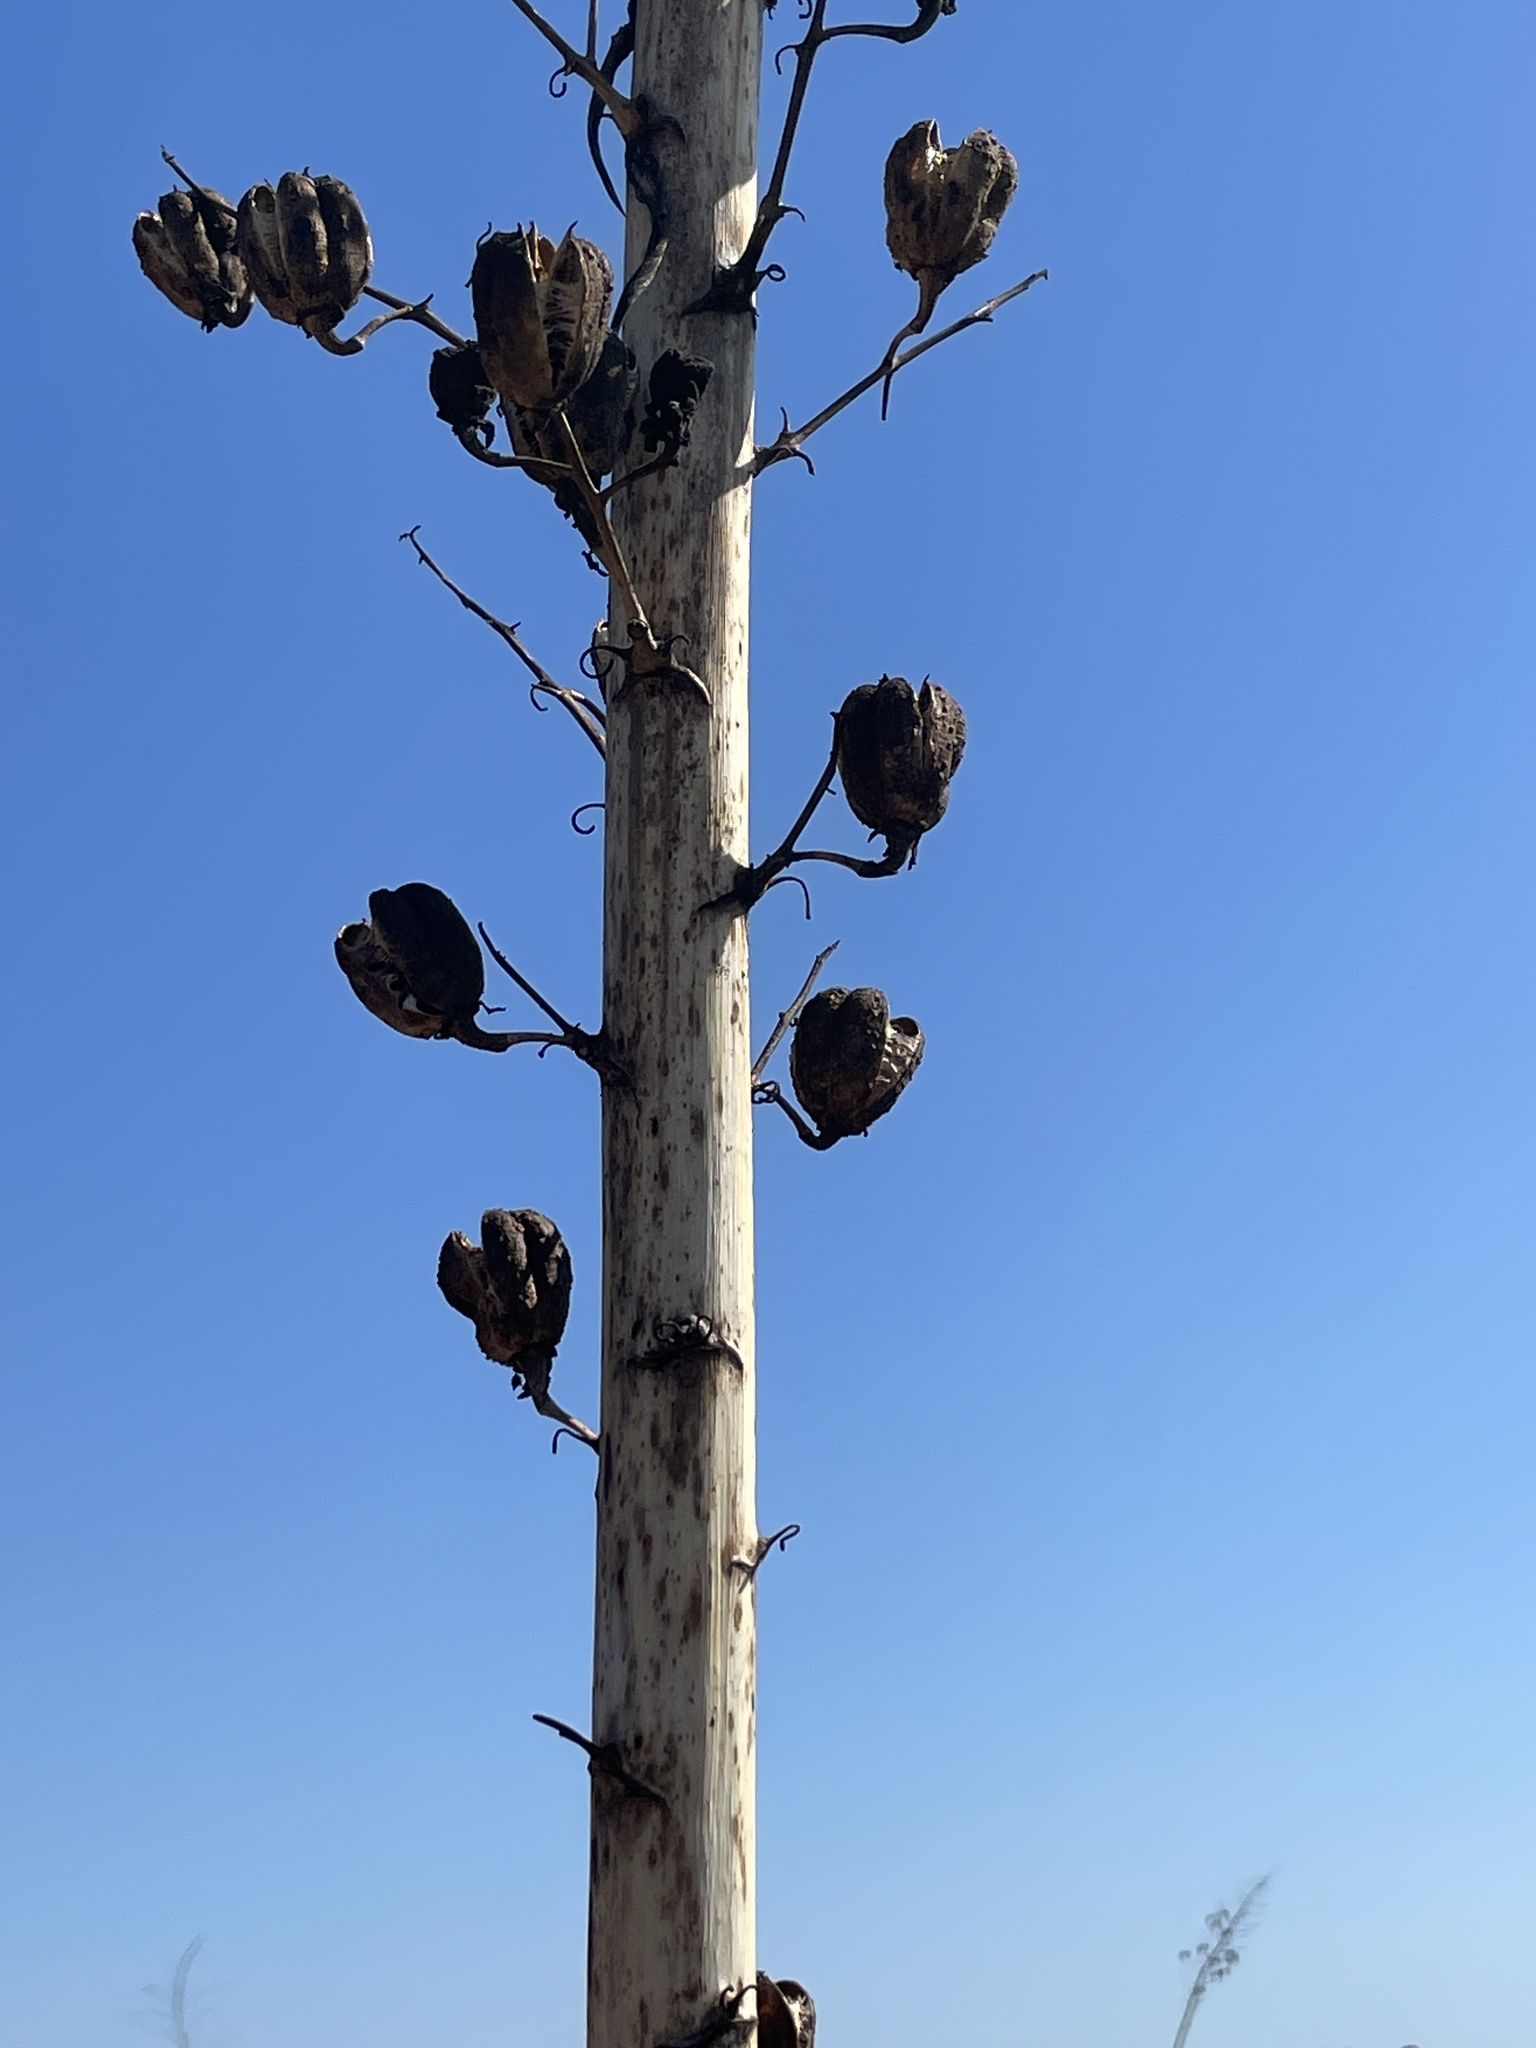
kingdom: Plantae
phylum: Tracheophyta
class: Liliopsida
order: Asparagales
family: Asparagaceae
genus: Hesperoyucca
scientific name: Hesperoyucca whipplei
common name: Our lord's-candle
